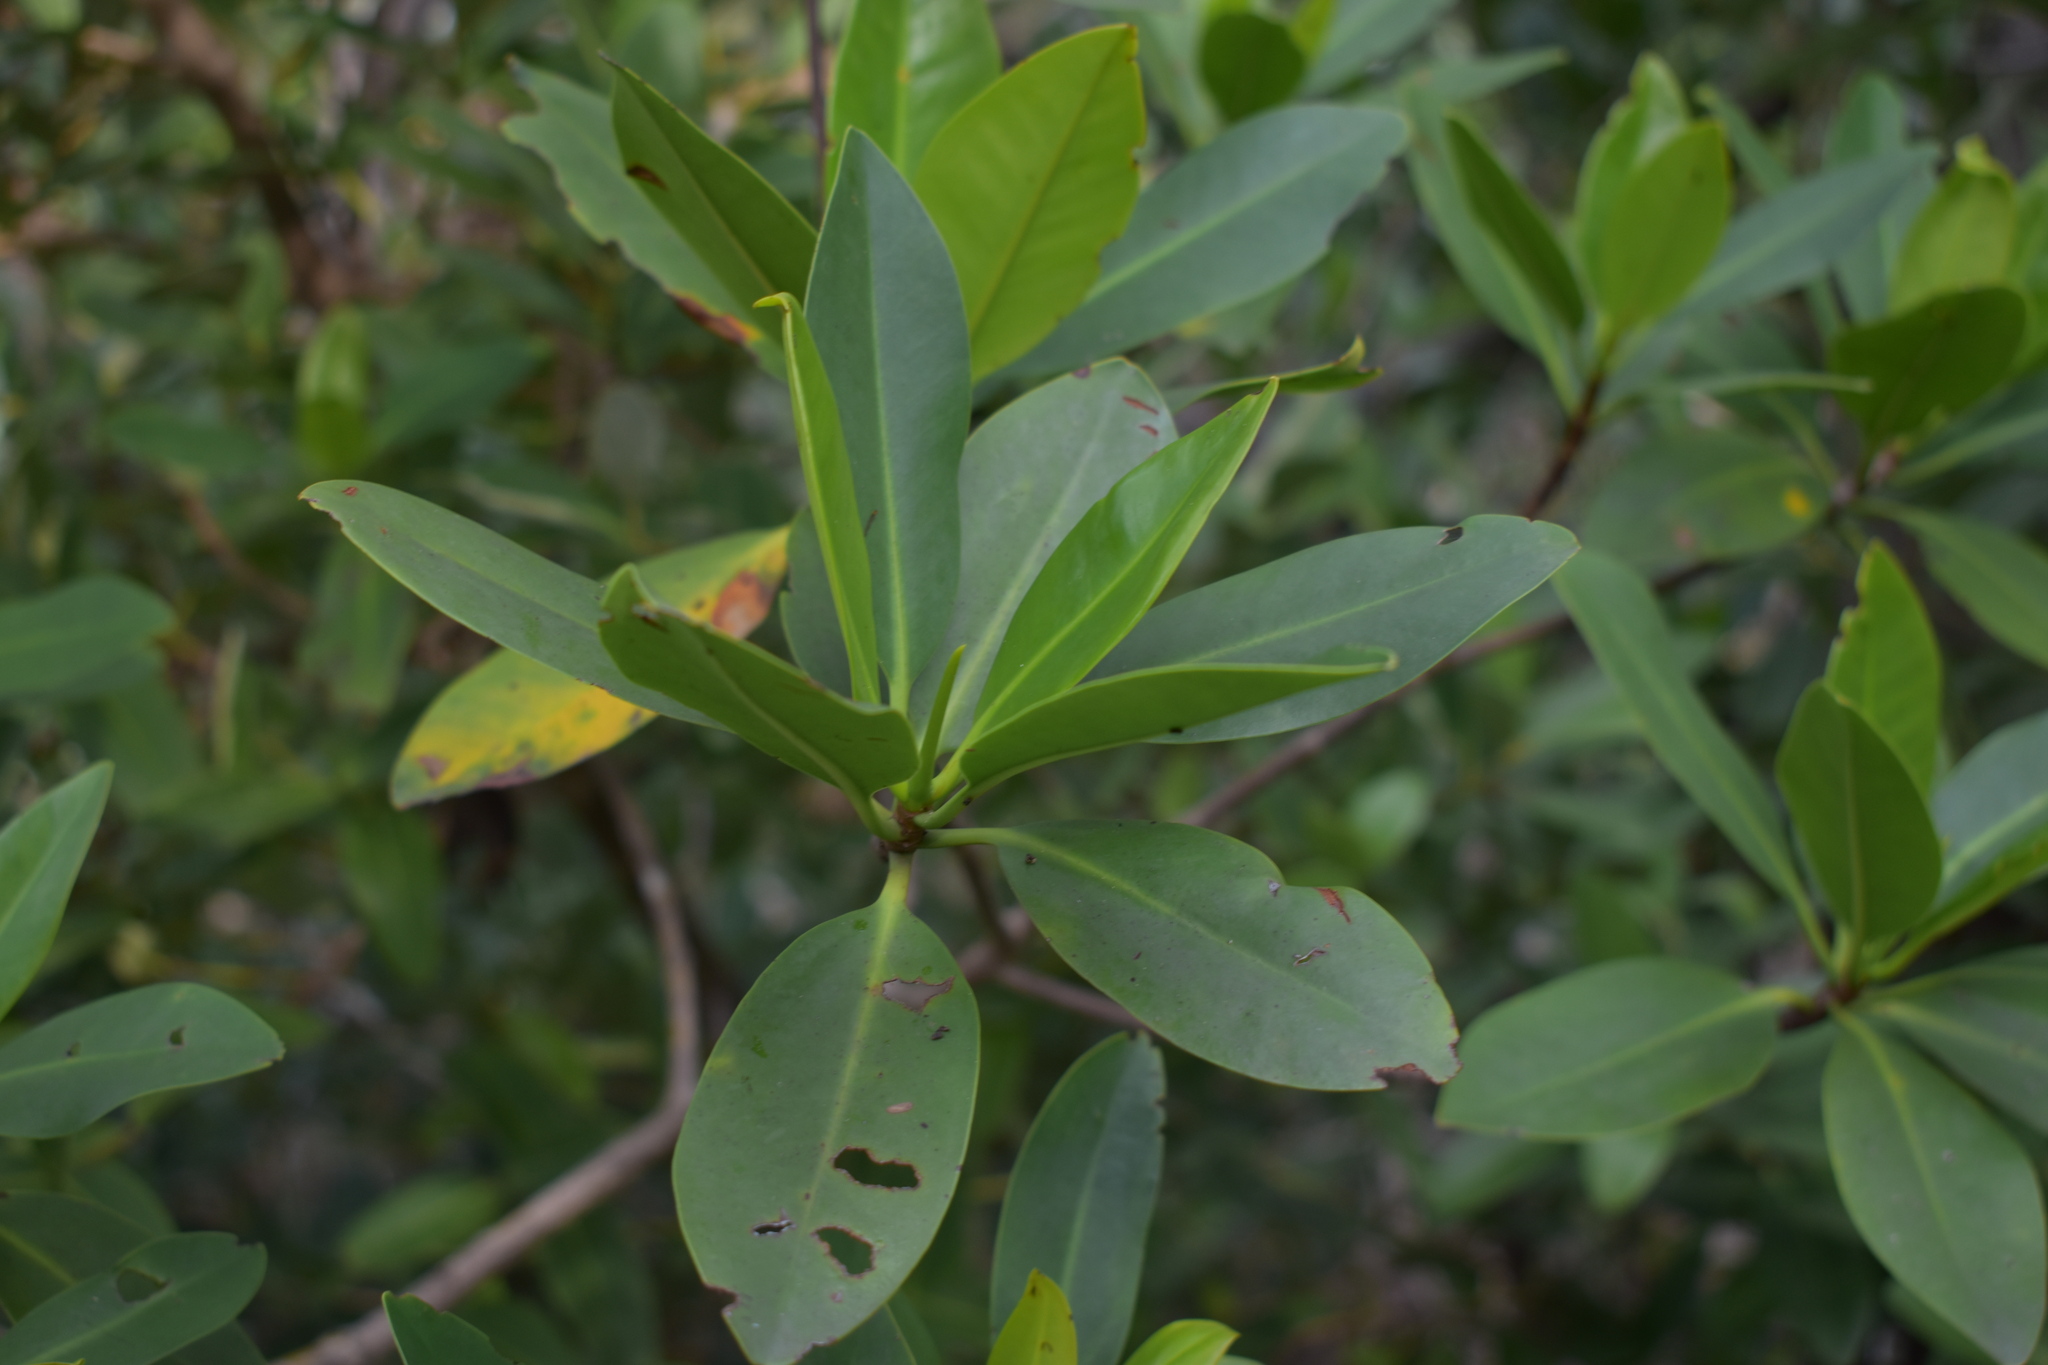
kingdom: Plantae
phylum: Tracheophyta
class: Magnoliopsida
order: Malpighiales
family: Rhizophoraceae
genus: Rhizophora
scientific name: Rhizophora mangle
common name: Red mangrove
